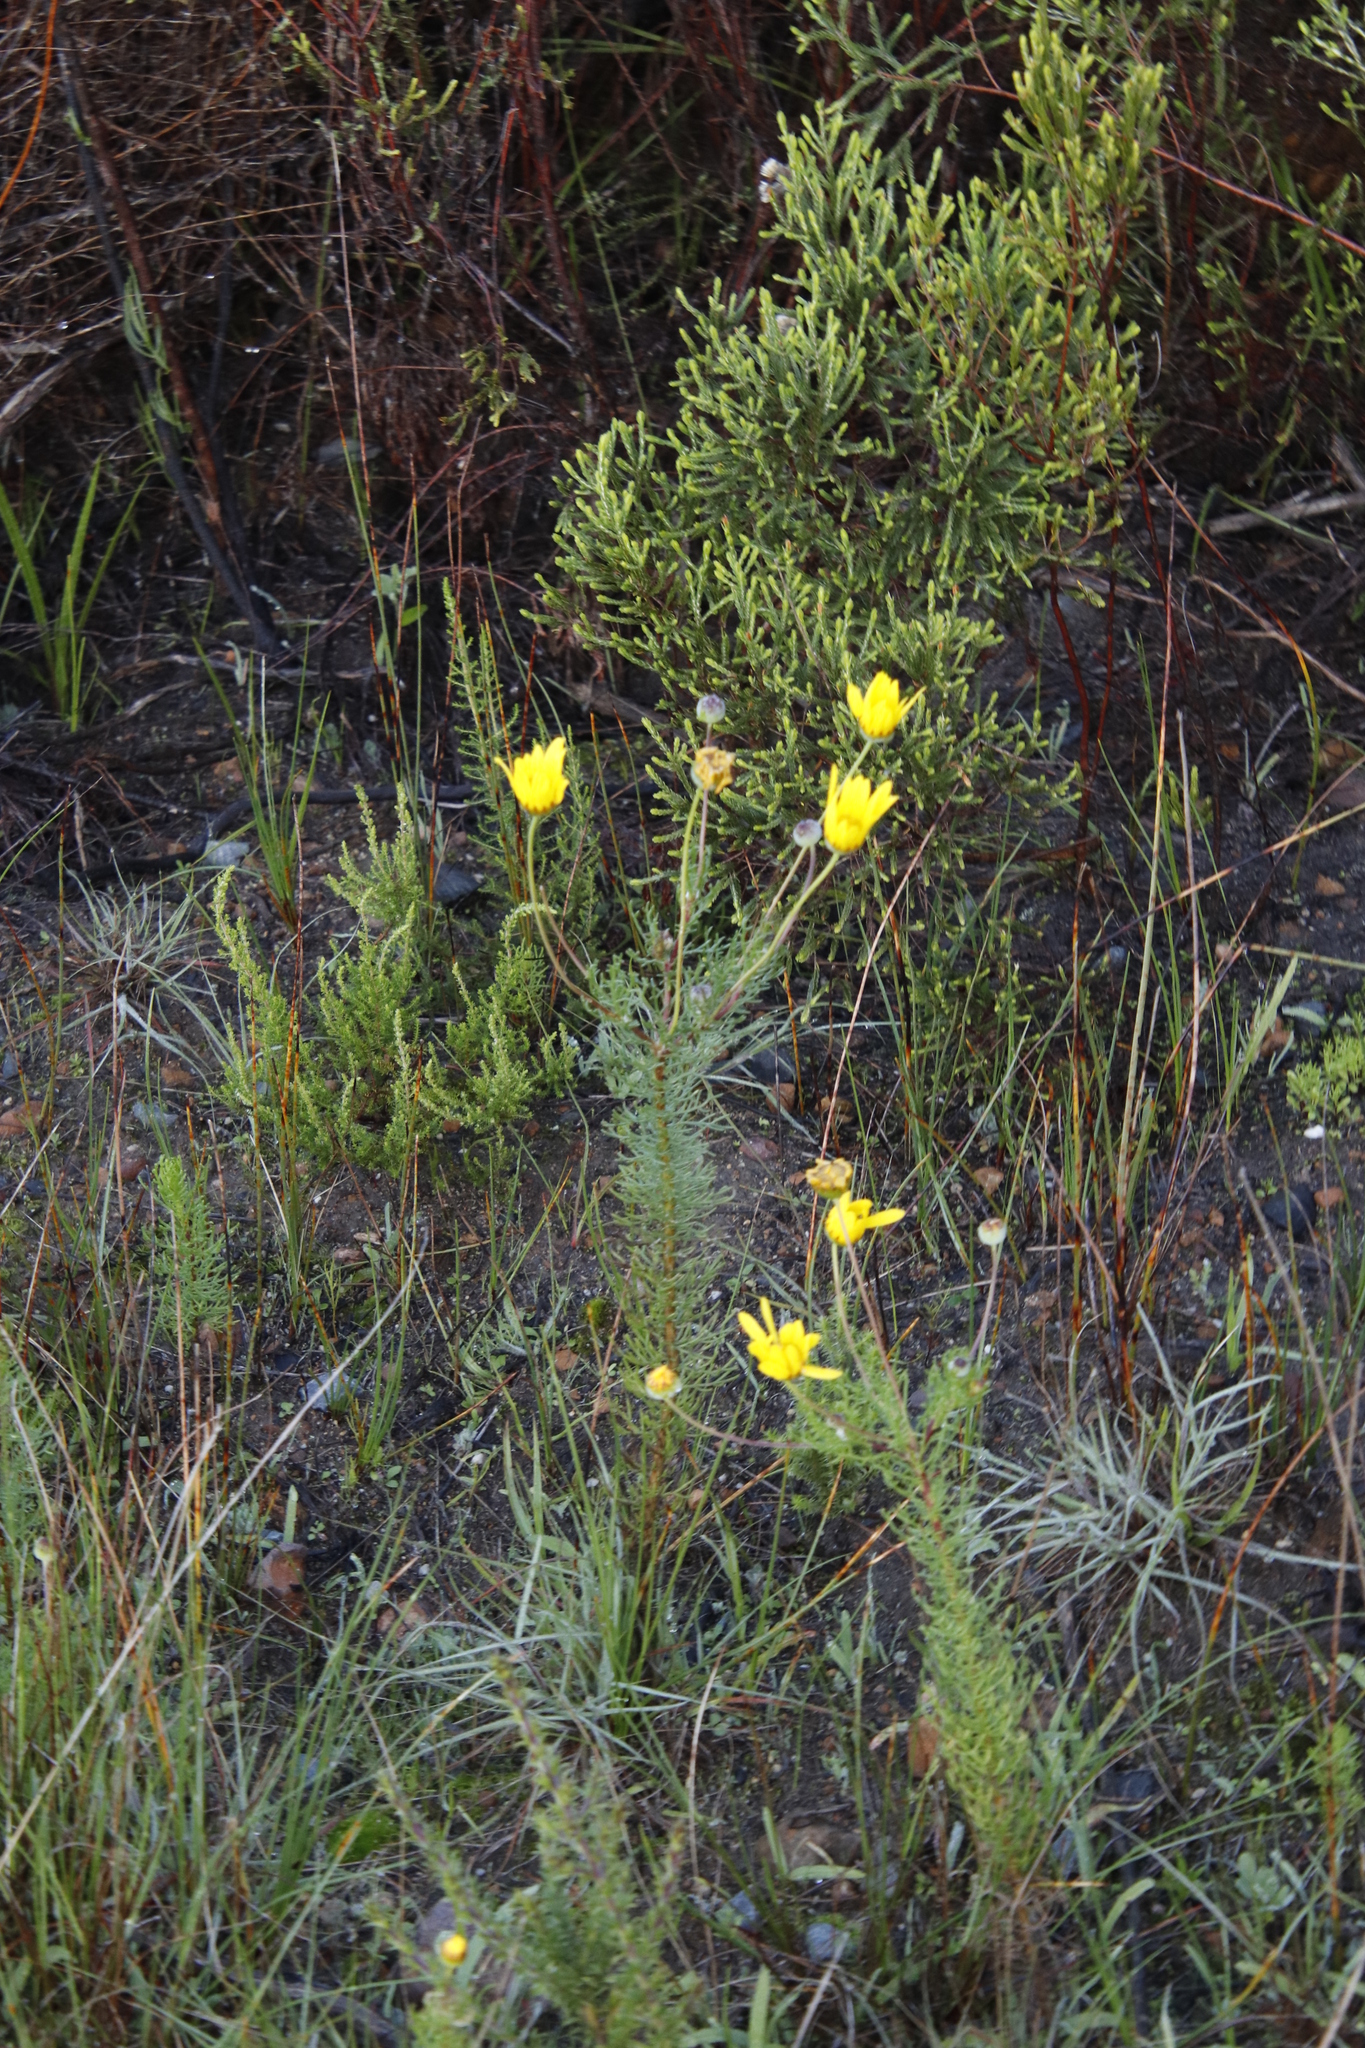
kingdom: Plantae
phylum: Tracheophyta
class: Magnoliopsida
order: Asterales
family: Asteraceae
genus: Euryops
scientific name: Euryops abrotanifolius
